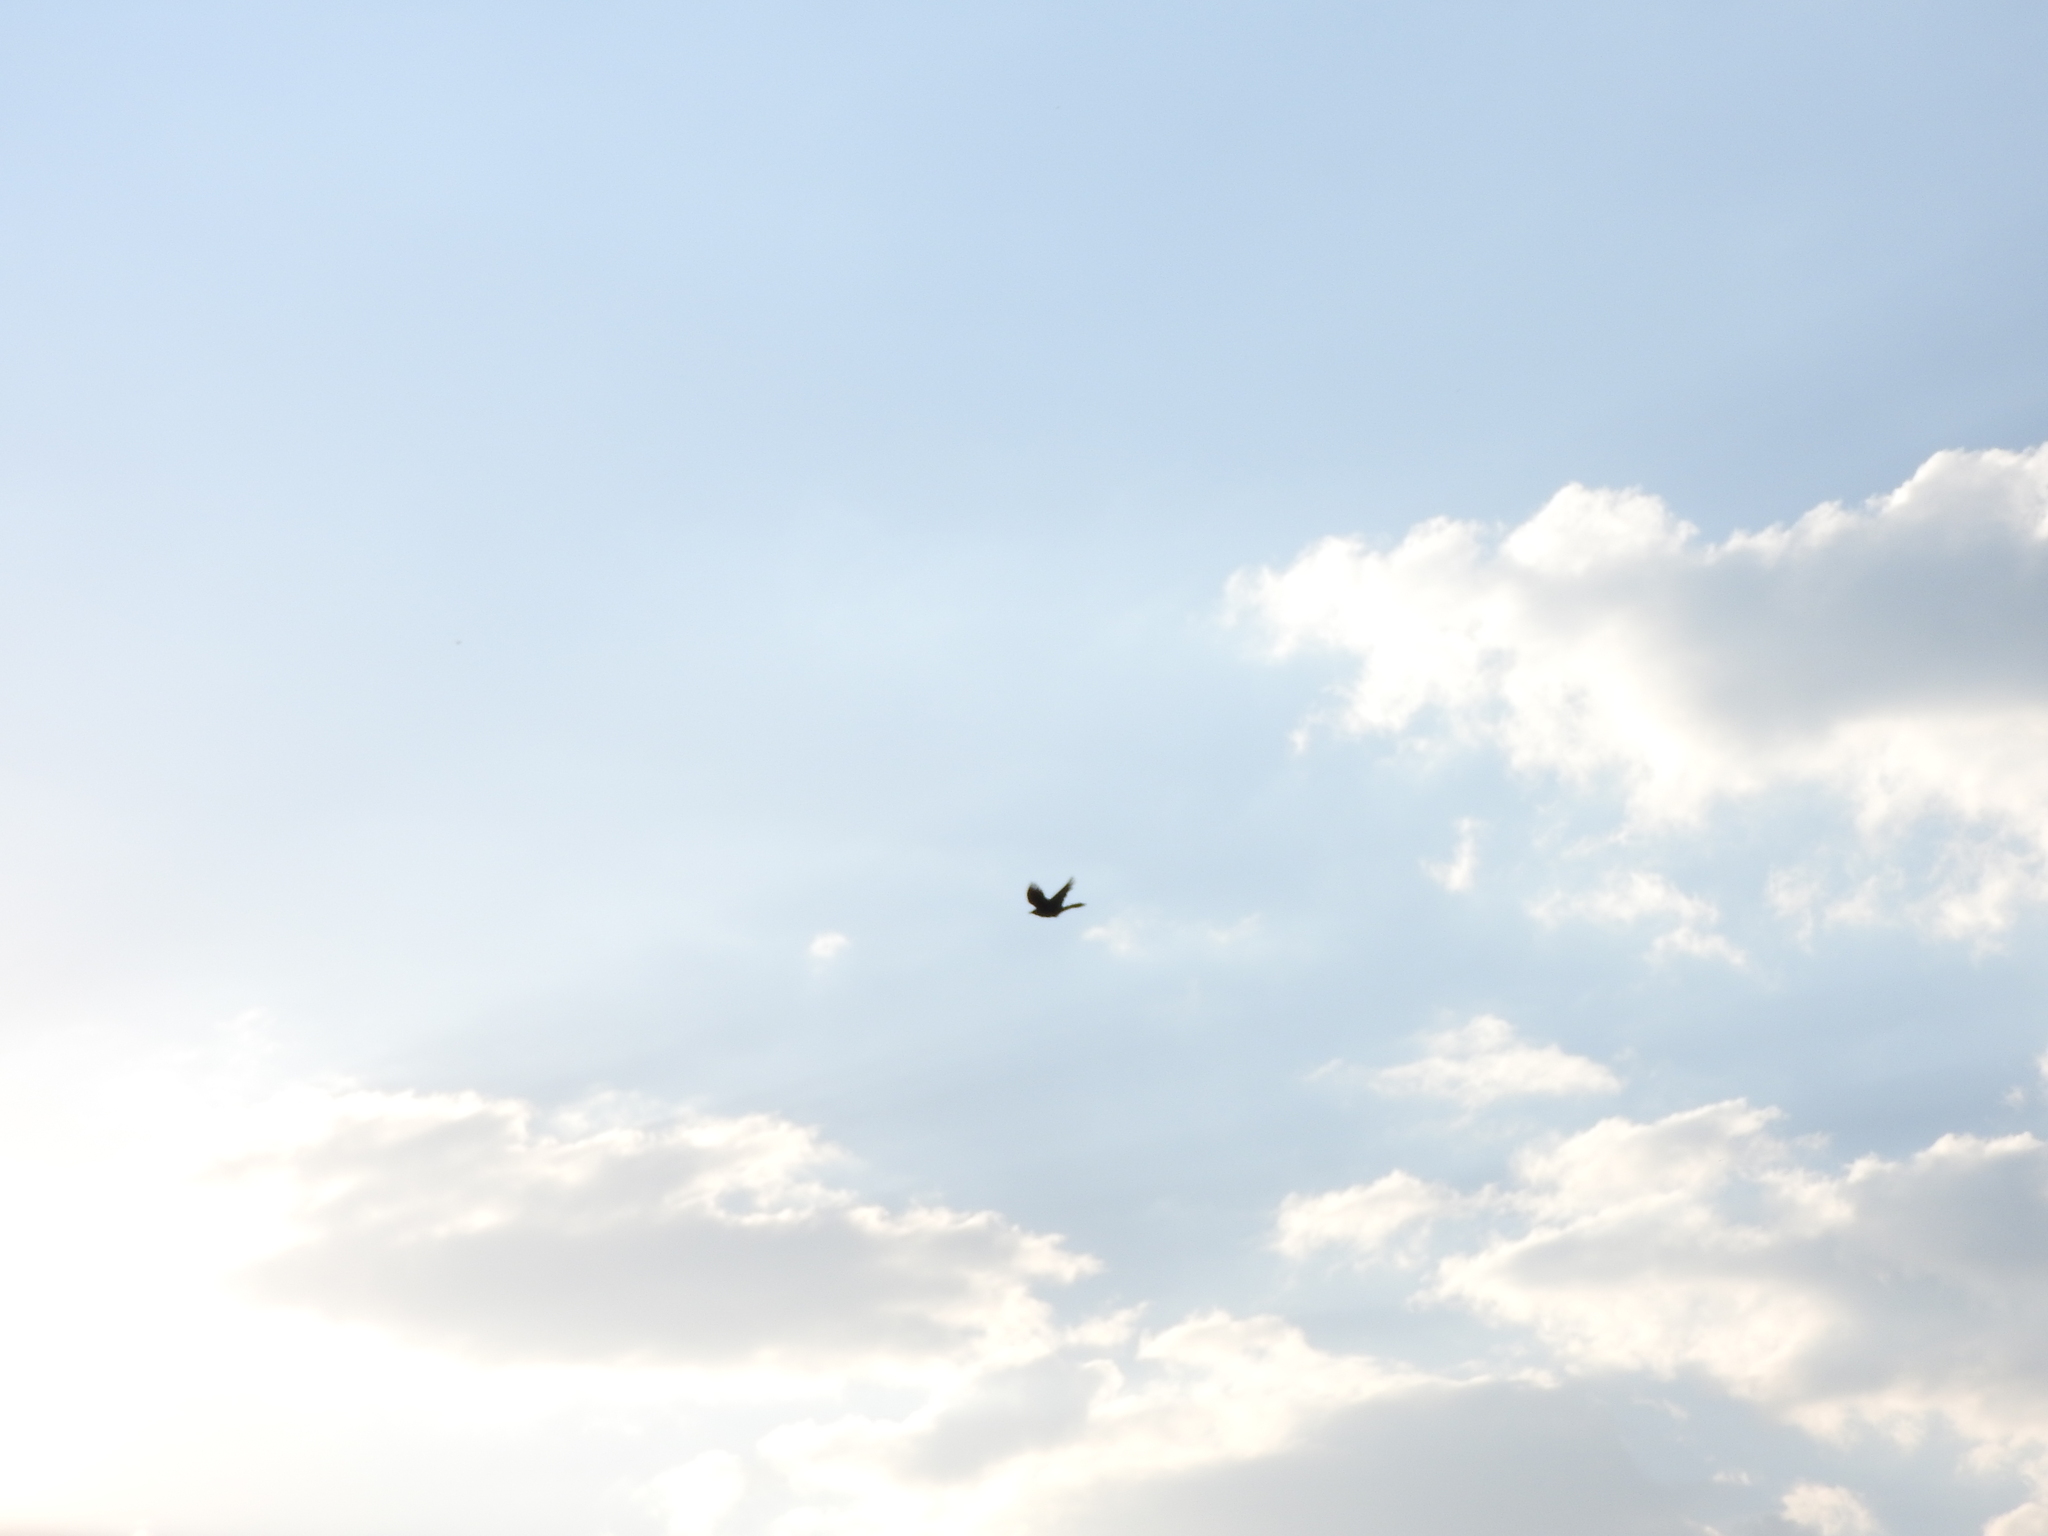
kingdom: Animalia
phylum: Chordata
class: Aves
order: Passeriformes
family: Icteridae
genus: Quiscalus
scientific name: Quiscalus mexicanus
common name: Great-tailed grackle
